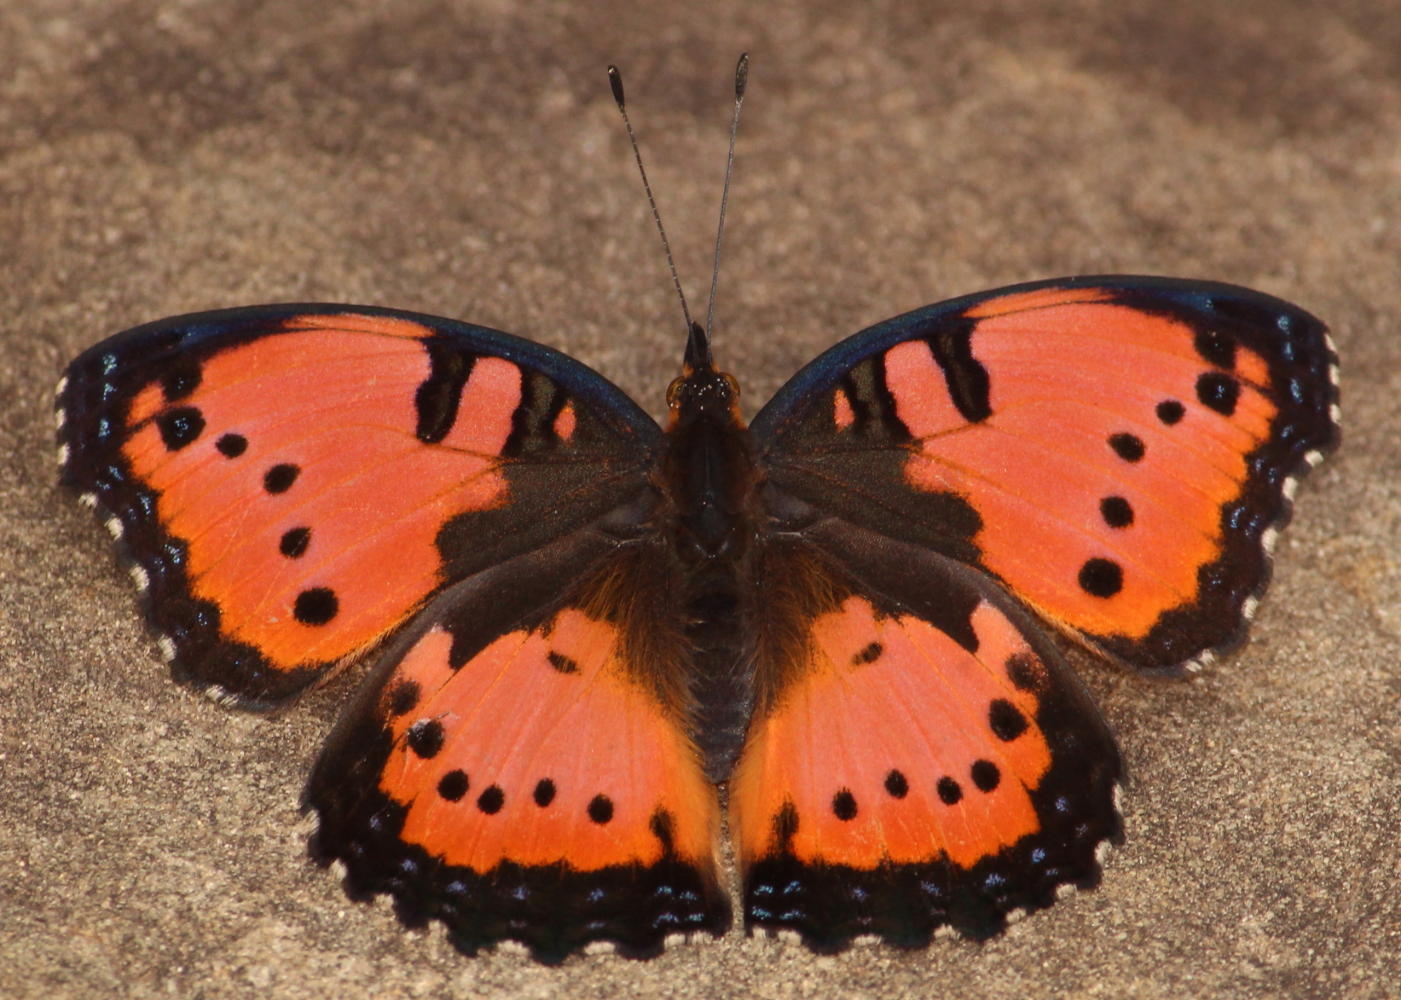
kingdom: Animalia
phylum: Arthropoda
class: Insecta
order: Lepidoptera
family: Nymphalidae
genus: Precis
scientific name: Precis octavia
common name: Gaudy commodore
